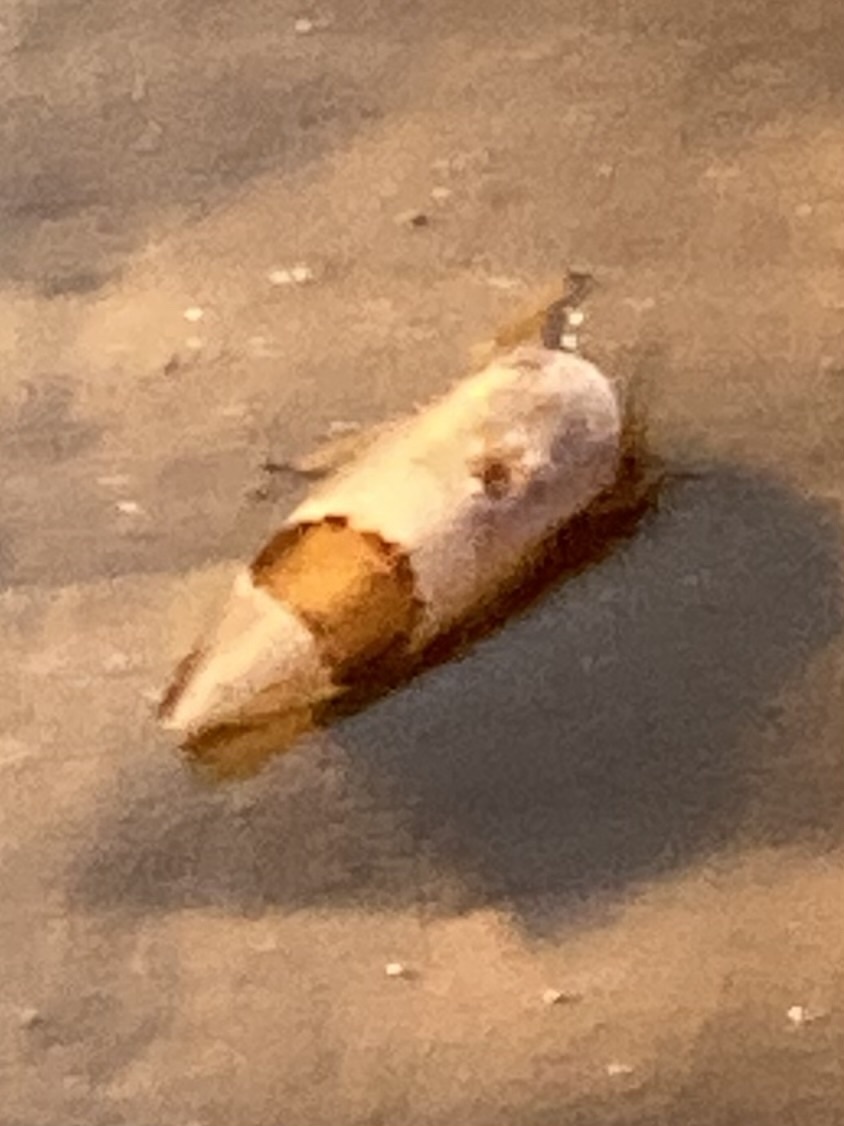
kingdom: Animalia
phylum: Arthropoda
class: Insecta
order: Hemiptera
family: Cicadellidae
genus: Norvellina
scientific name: Norvellina seminuda
